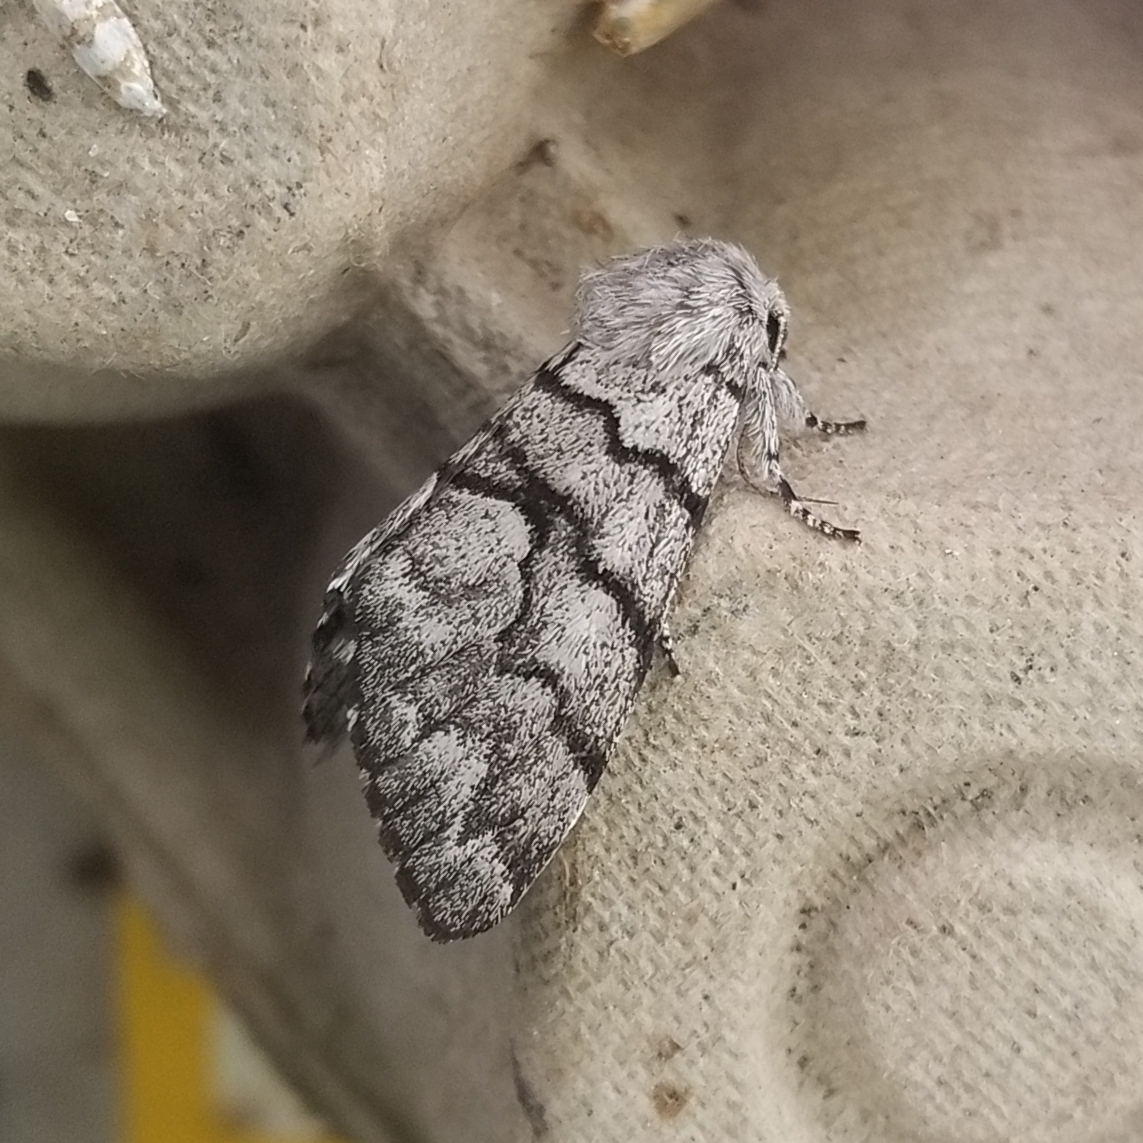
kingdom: Animalia
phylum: Arthropoda
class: Insecta
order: Lepidoptera
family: Noctuidae
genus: Panthea
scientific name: Panthea furcilla
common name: Eastern panthea moth
